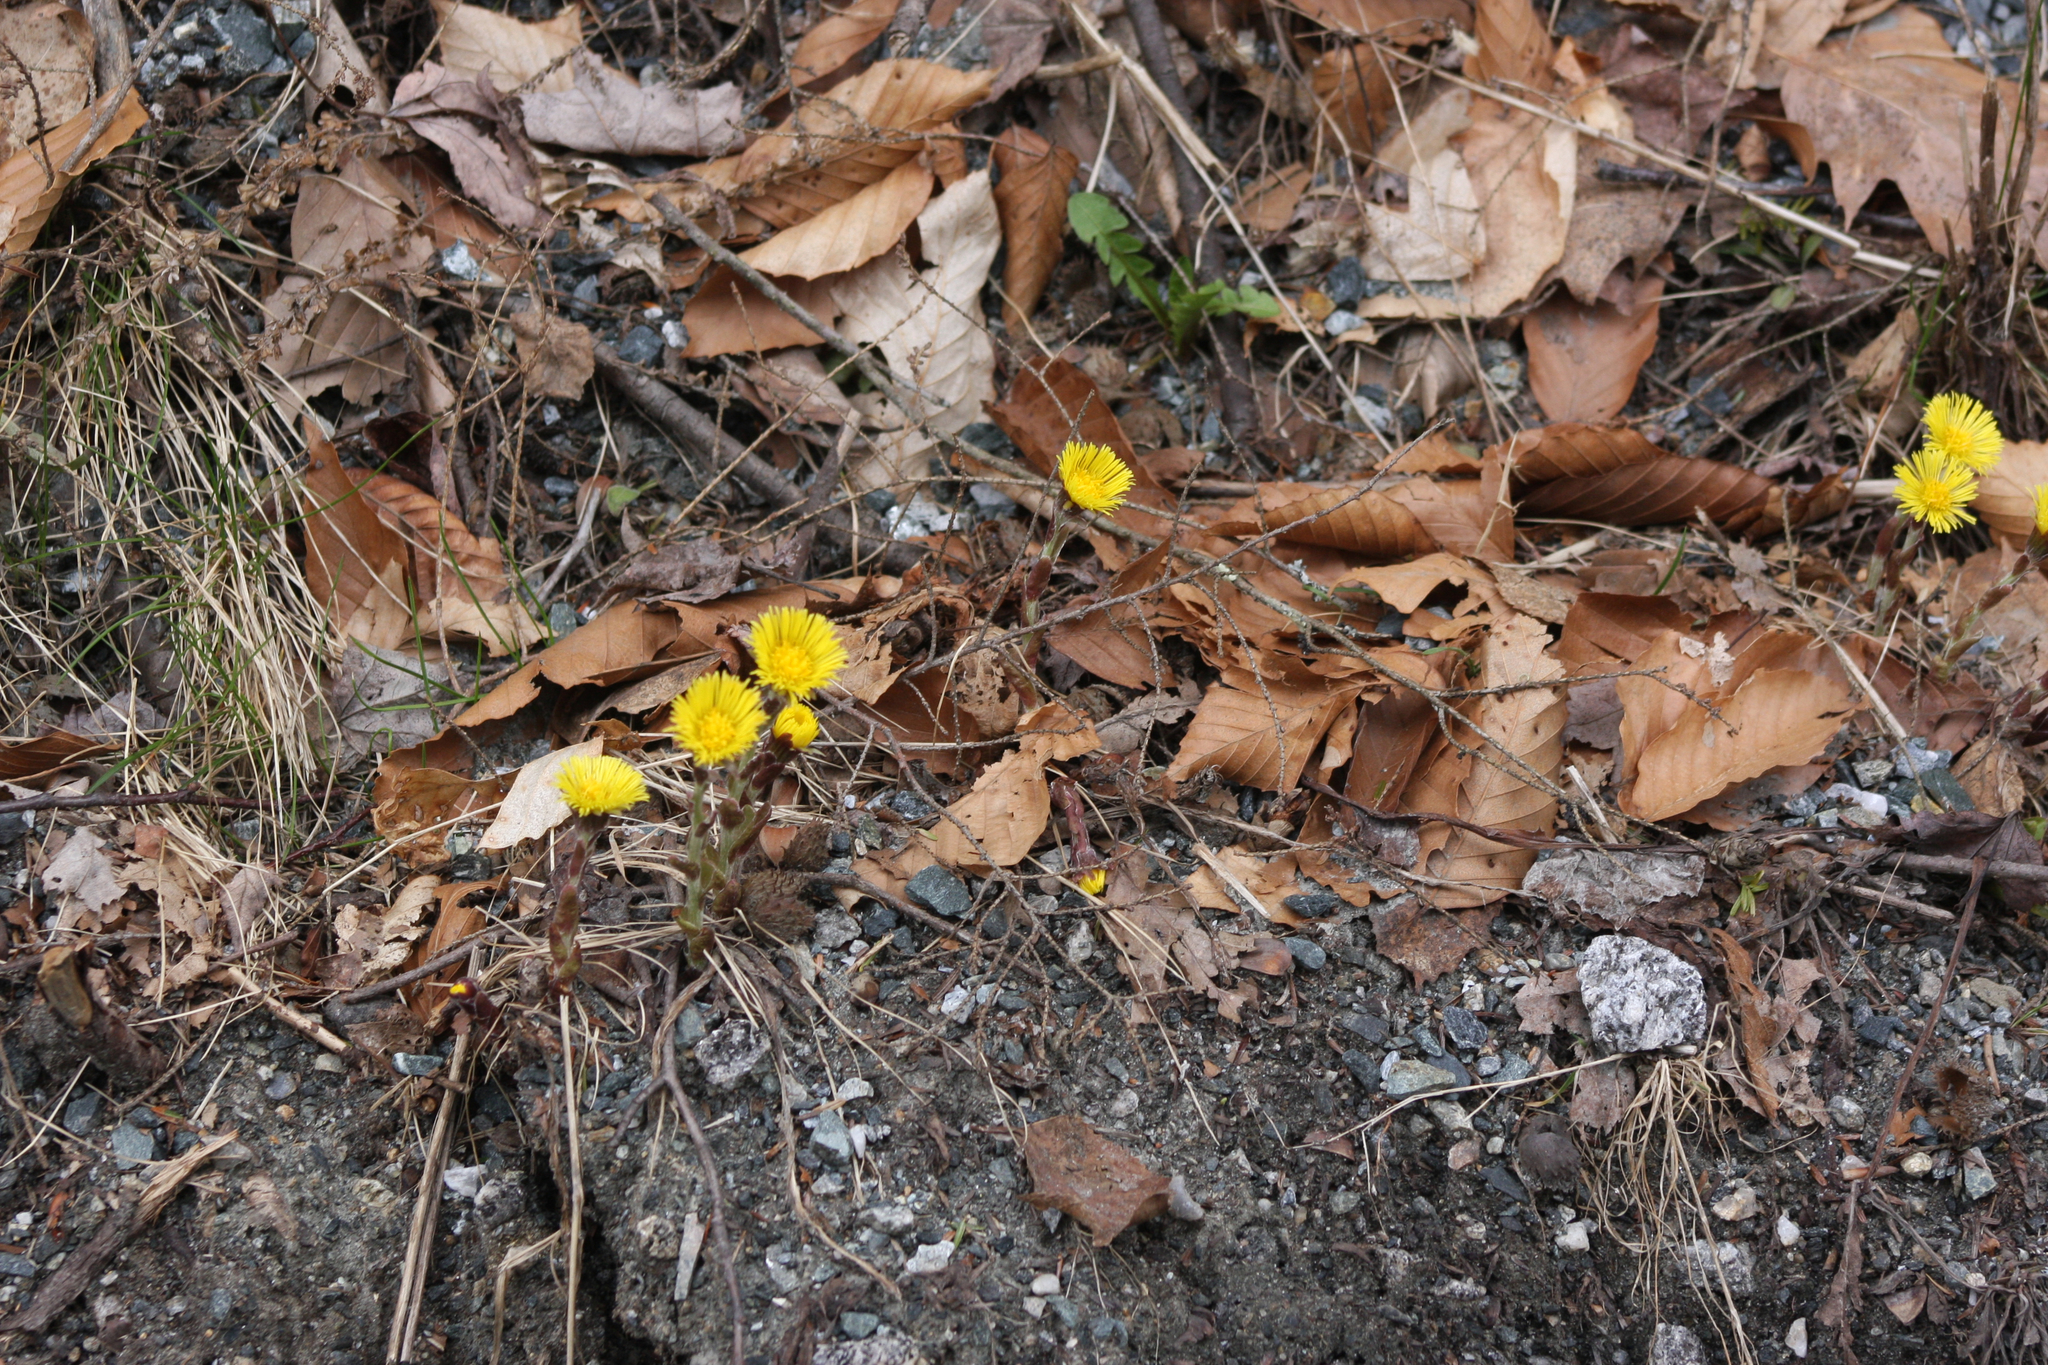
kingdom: Plantae
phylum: Tracheophyta
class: Magnoliopsida
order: Asterales
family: Asteraceae
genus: Tussilago
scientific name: Tussilago farfara
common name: Coltsfoot
